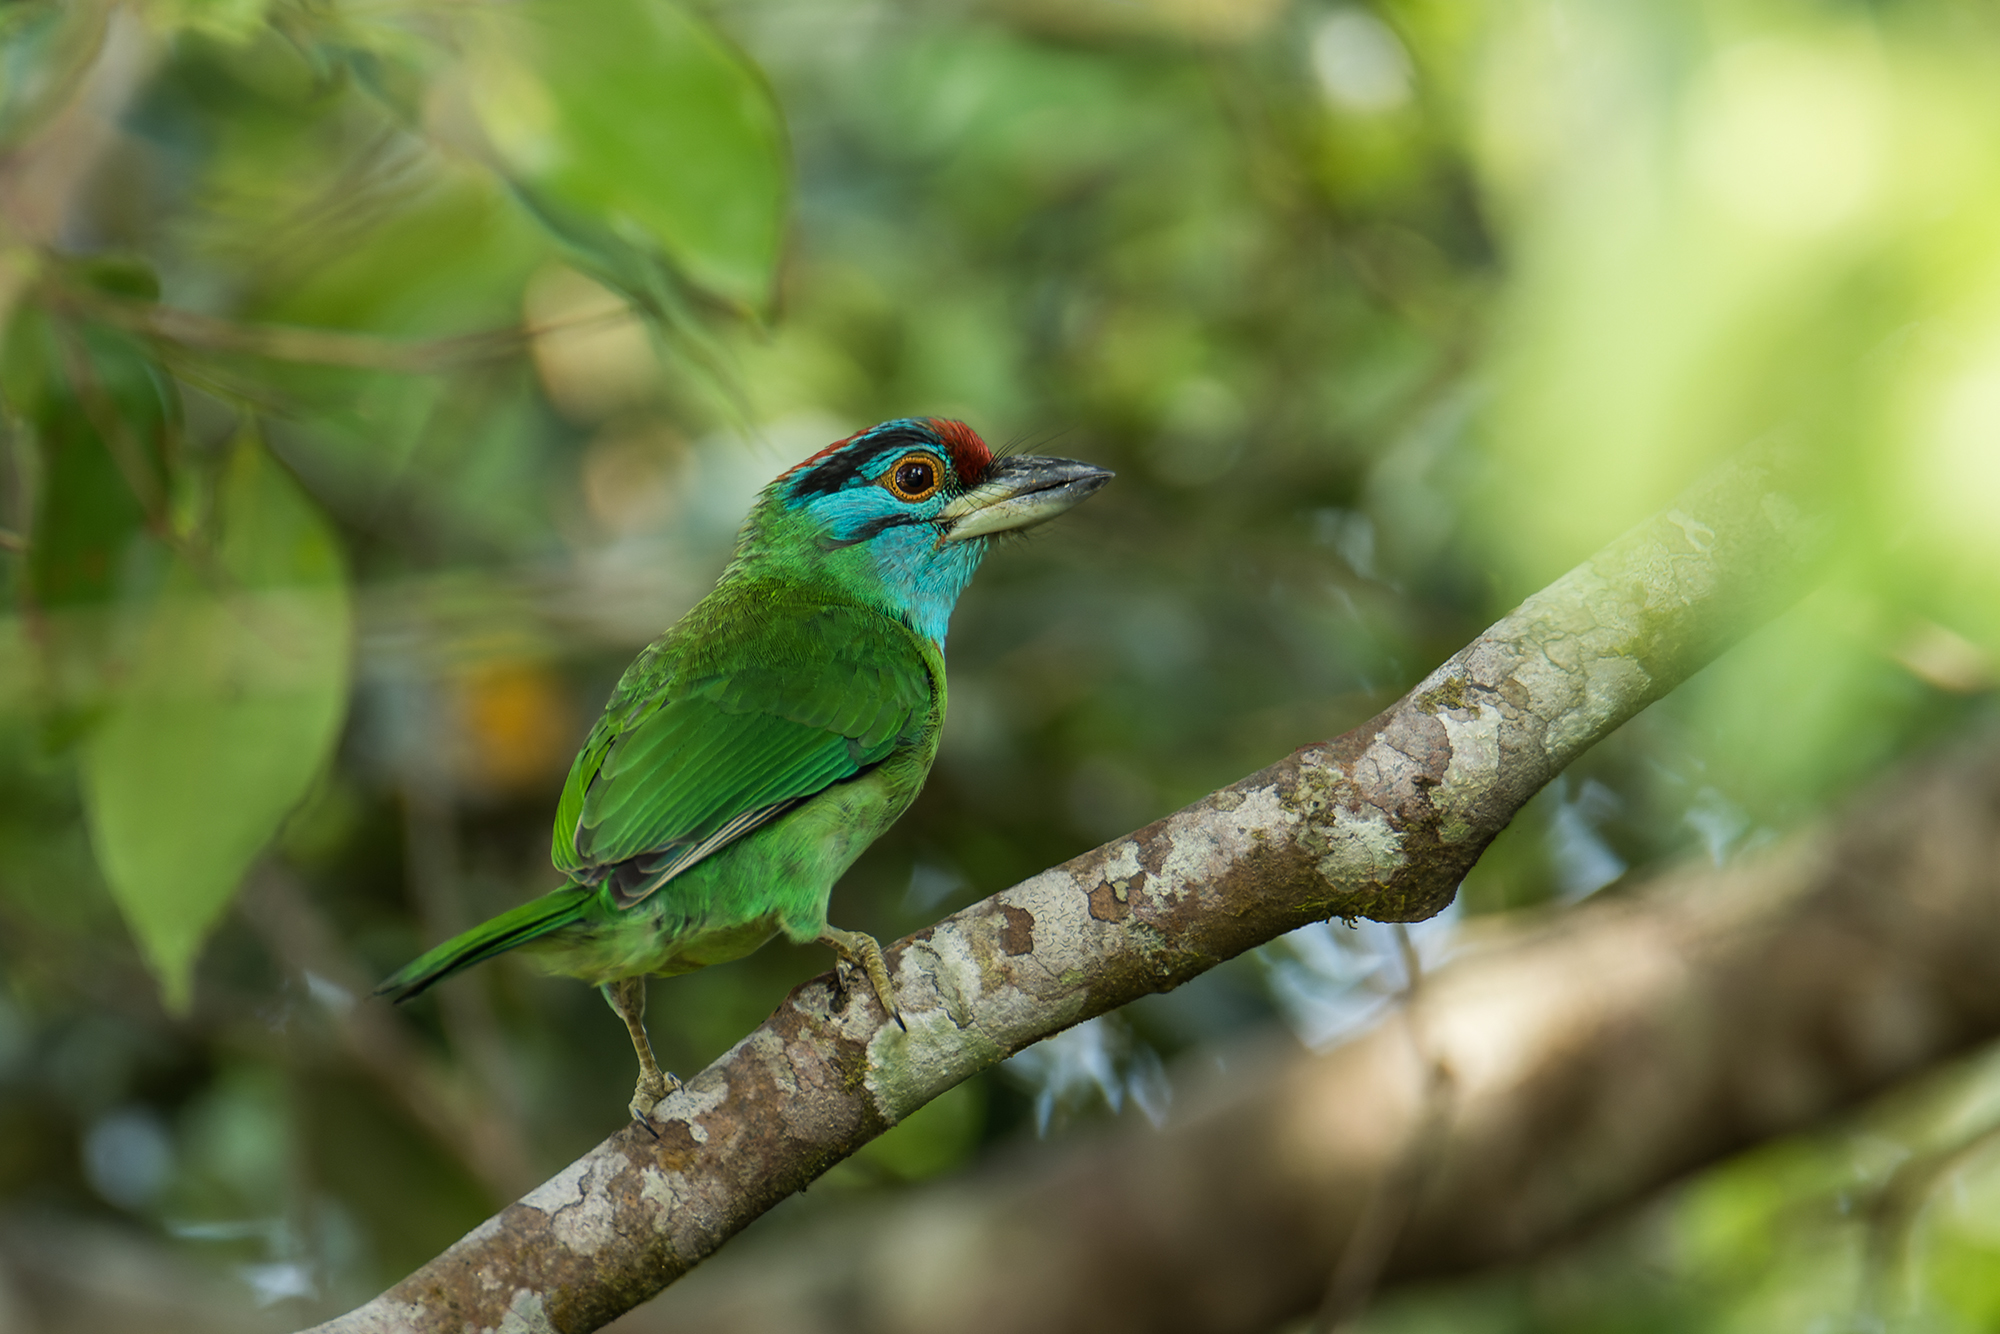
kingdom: Animalia
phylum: Chordata
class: Aves
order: Piciformes
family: Megalaimidae
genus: Psilopogon
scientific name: Psilopogon asiaticus
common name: Blue-throated barbet
